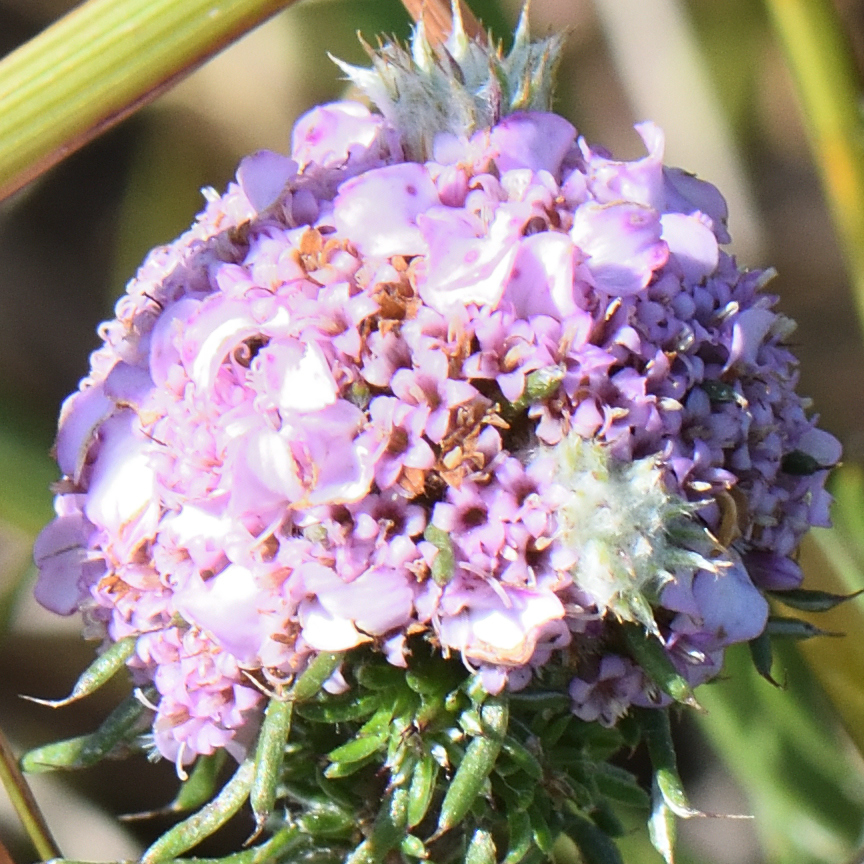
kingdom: Plantae
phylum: Tracheophyta
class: Magnoliopsida
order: Asterales
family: Asteraceae
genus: Disparago
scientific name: Disparago tortilis
